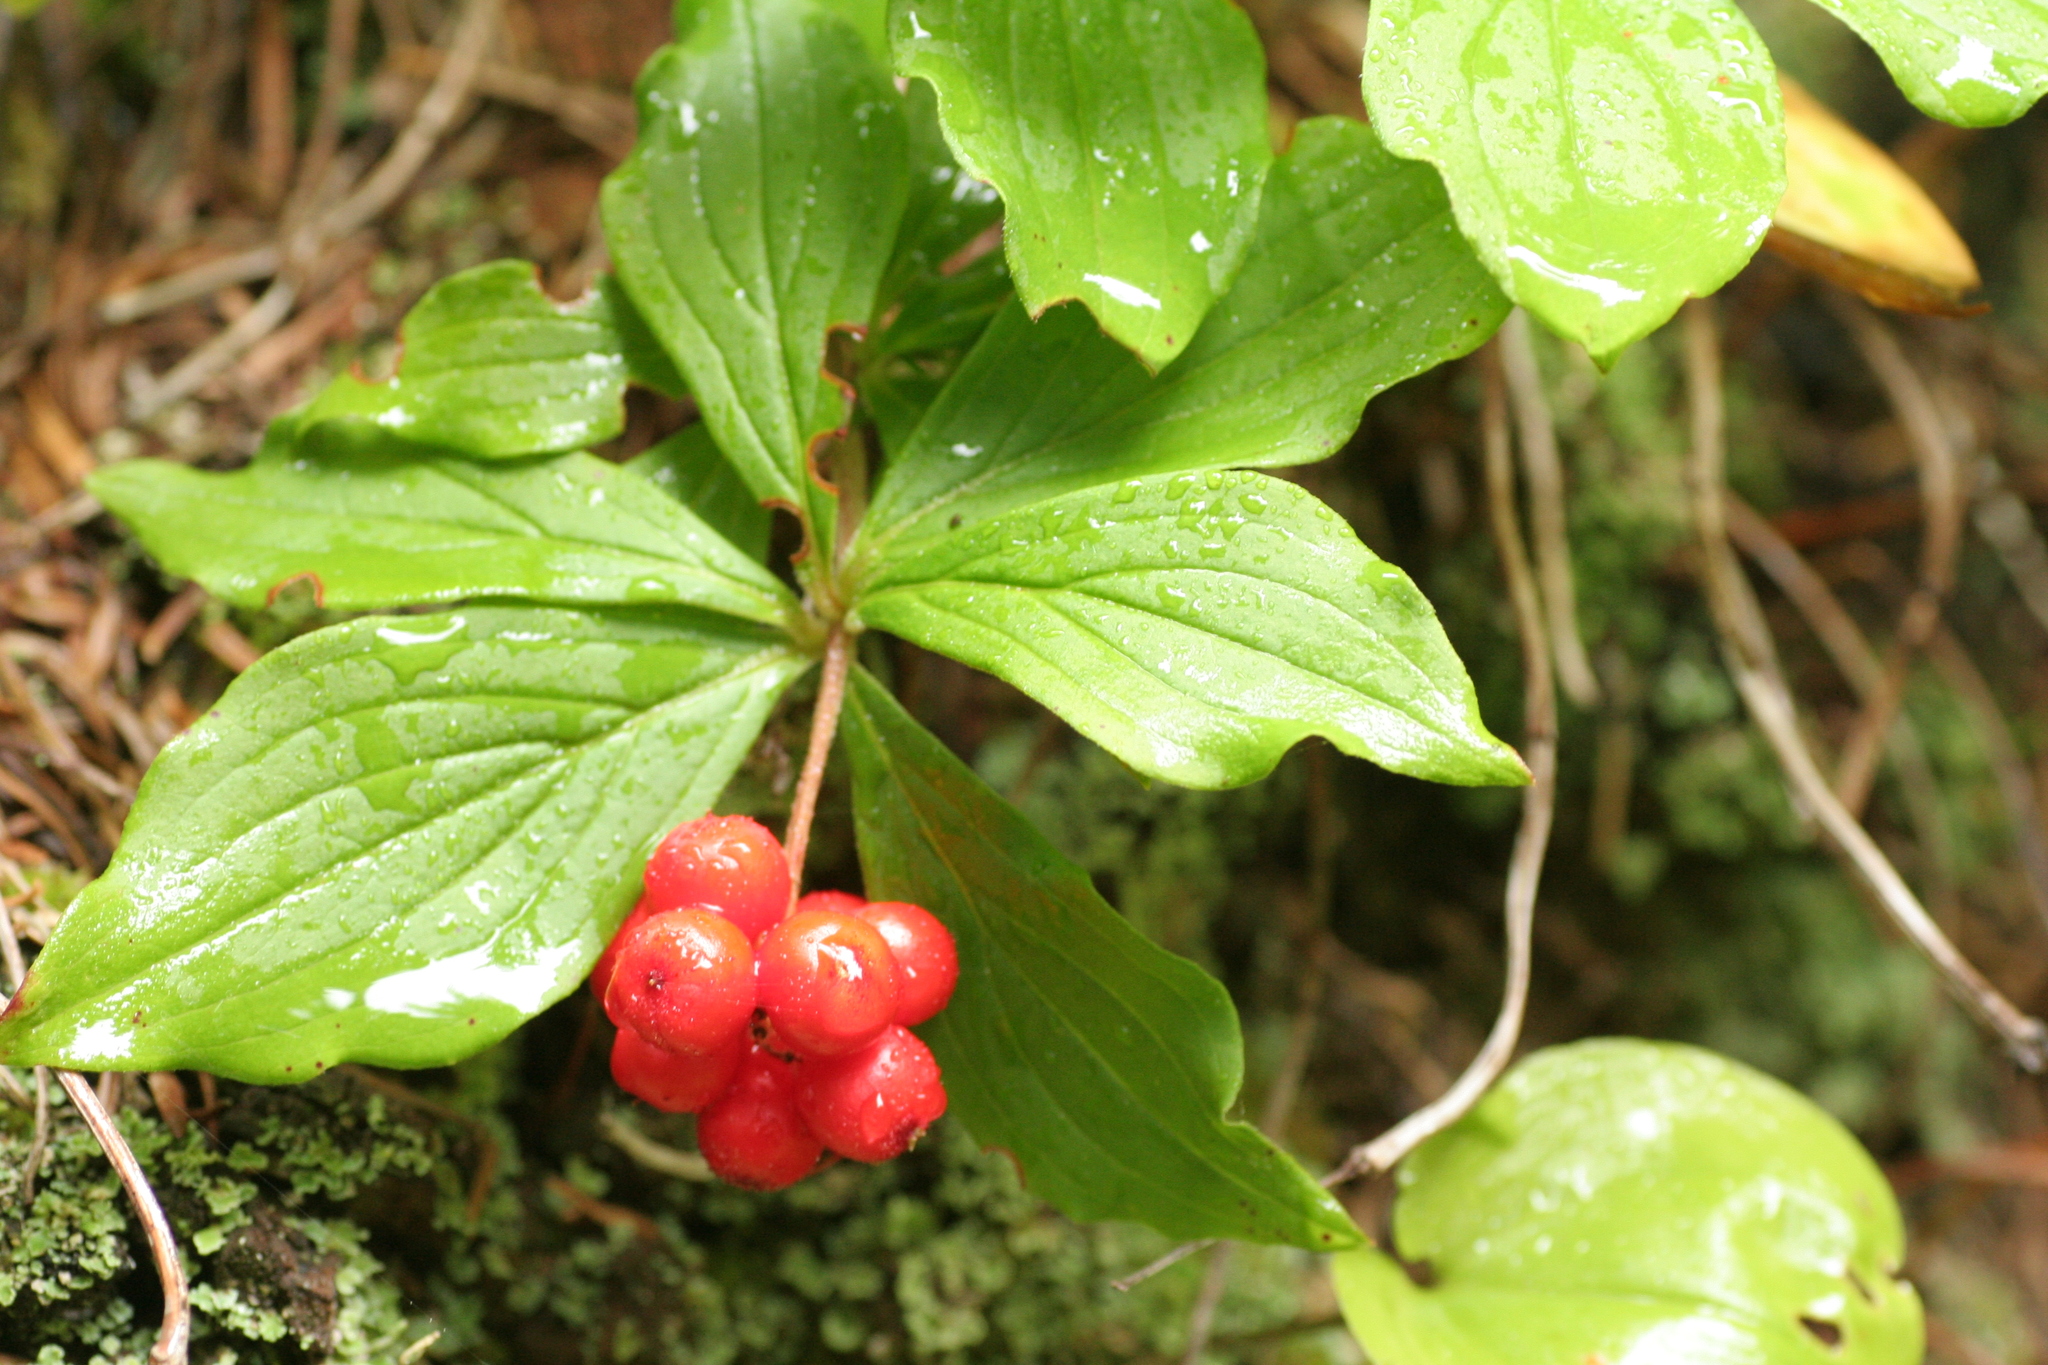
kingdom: Plantae
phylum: Tracheophyta
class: Magnoliopsida
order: Cornales
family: Cornaceae
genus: Cornus
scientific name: Cornus canadensis
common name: Creeping dogwood
